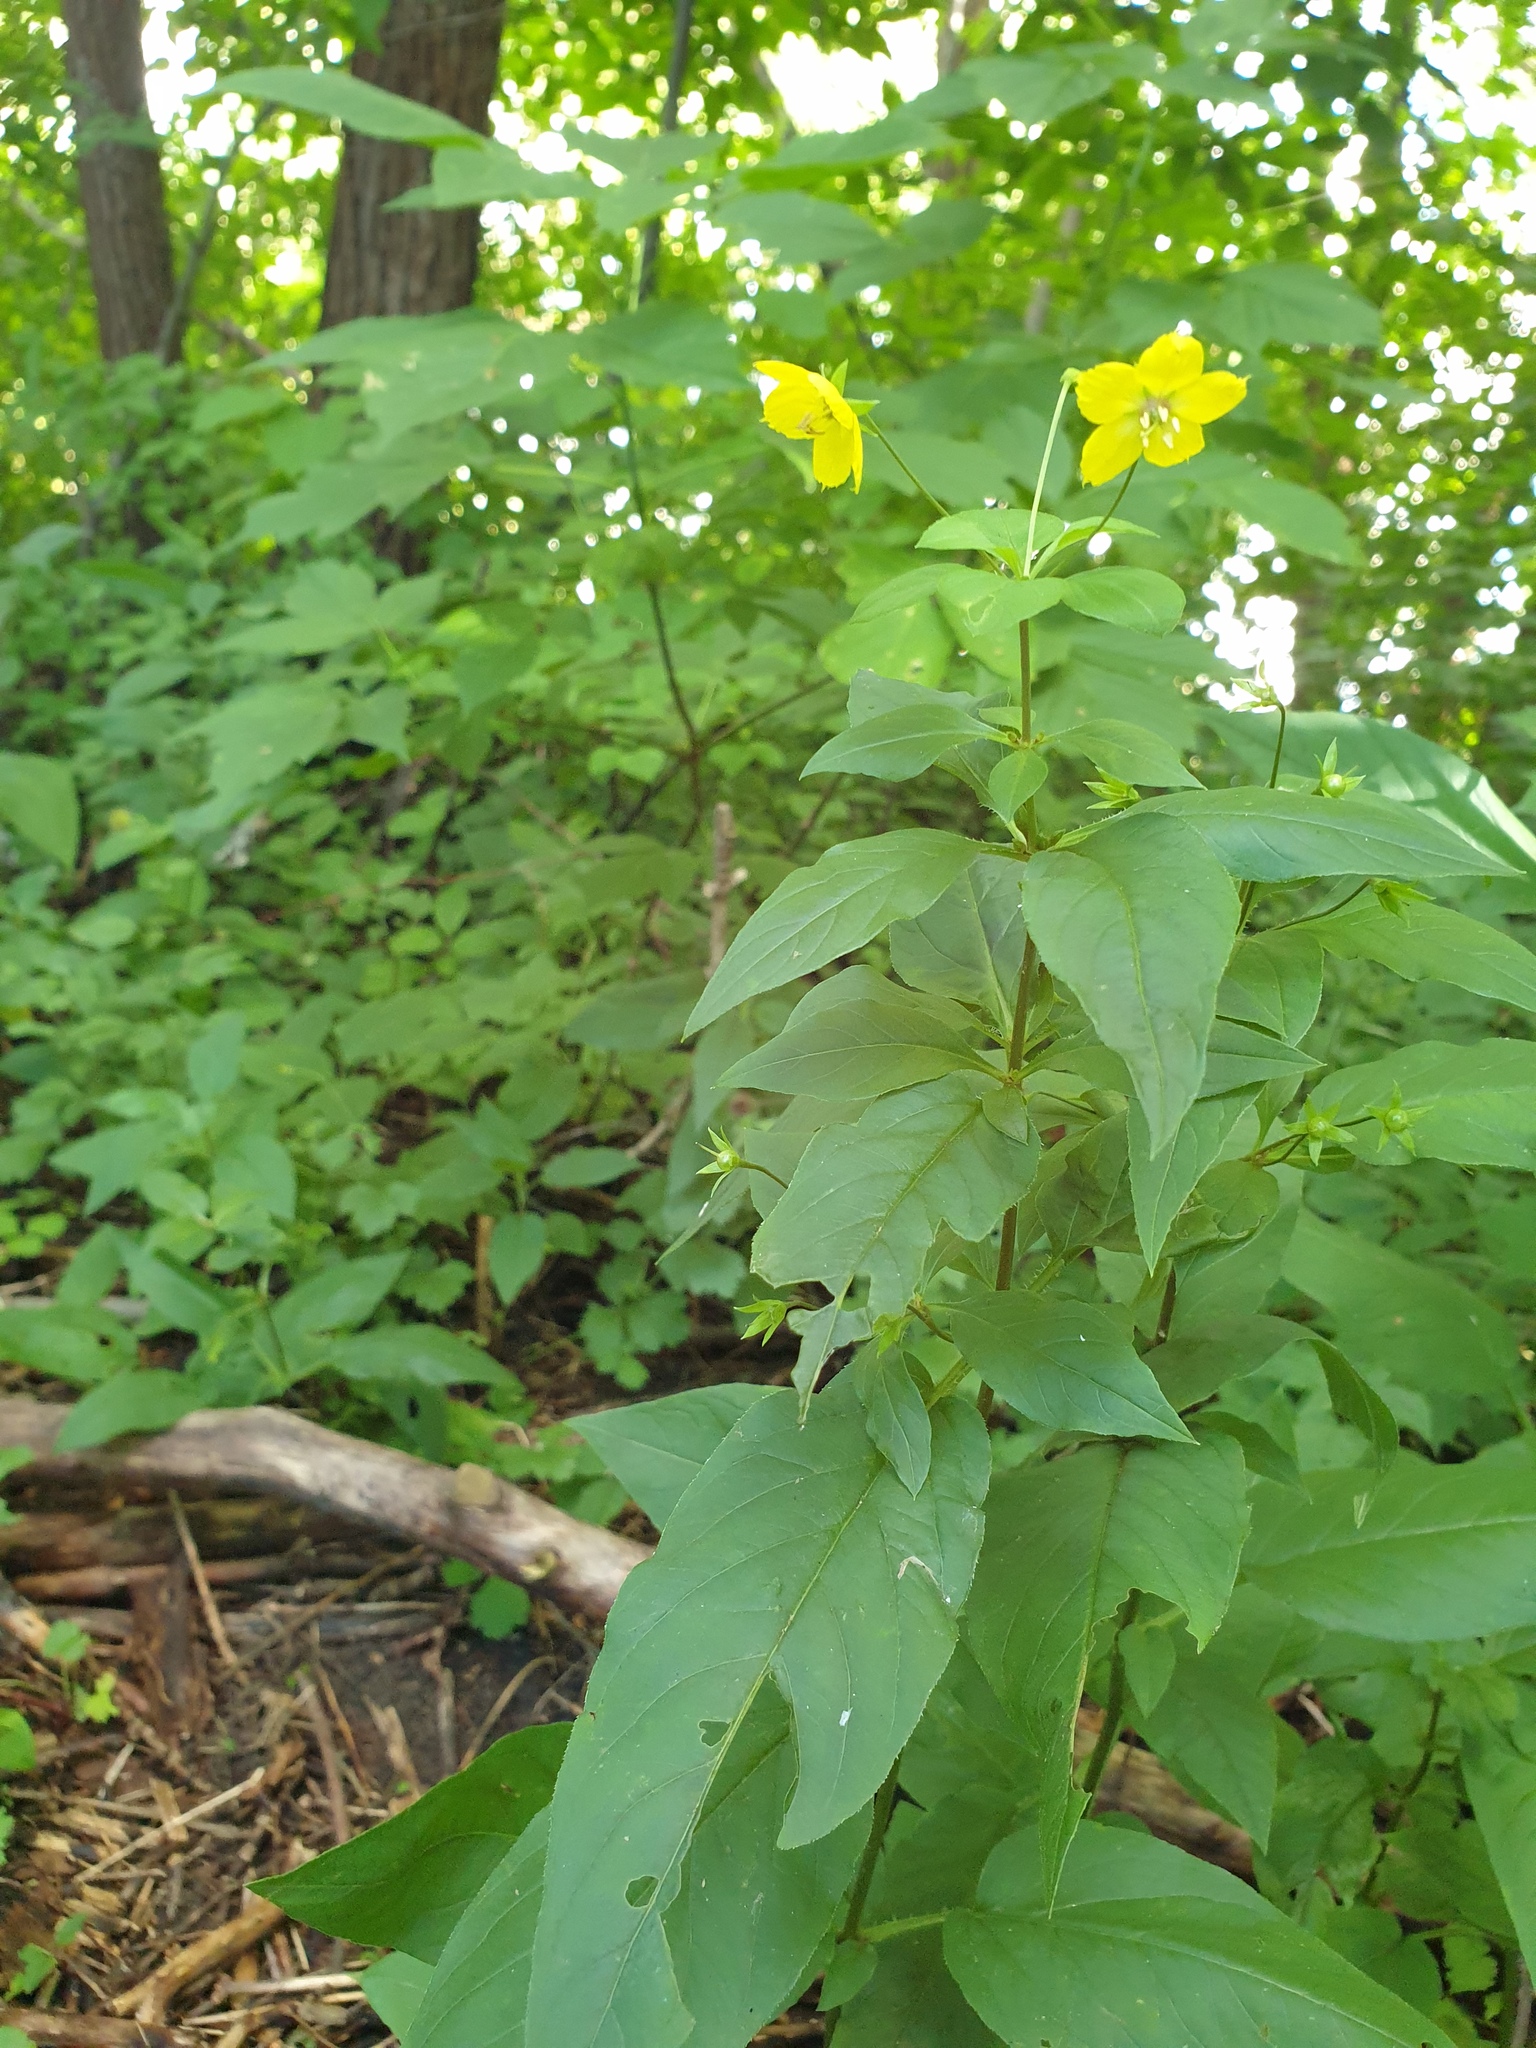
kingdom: Plantae
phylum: Tracheophyta
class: Magnoliopsida
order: Ericales
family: Primulaceae
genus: Lysimachia
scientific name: Lysimachia ciliata
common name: Fringed loosestrife
